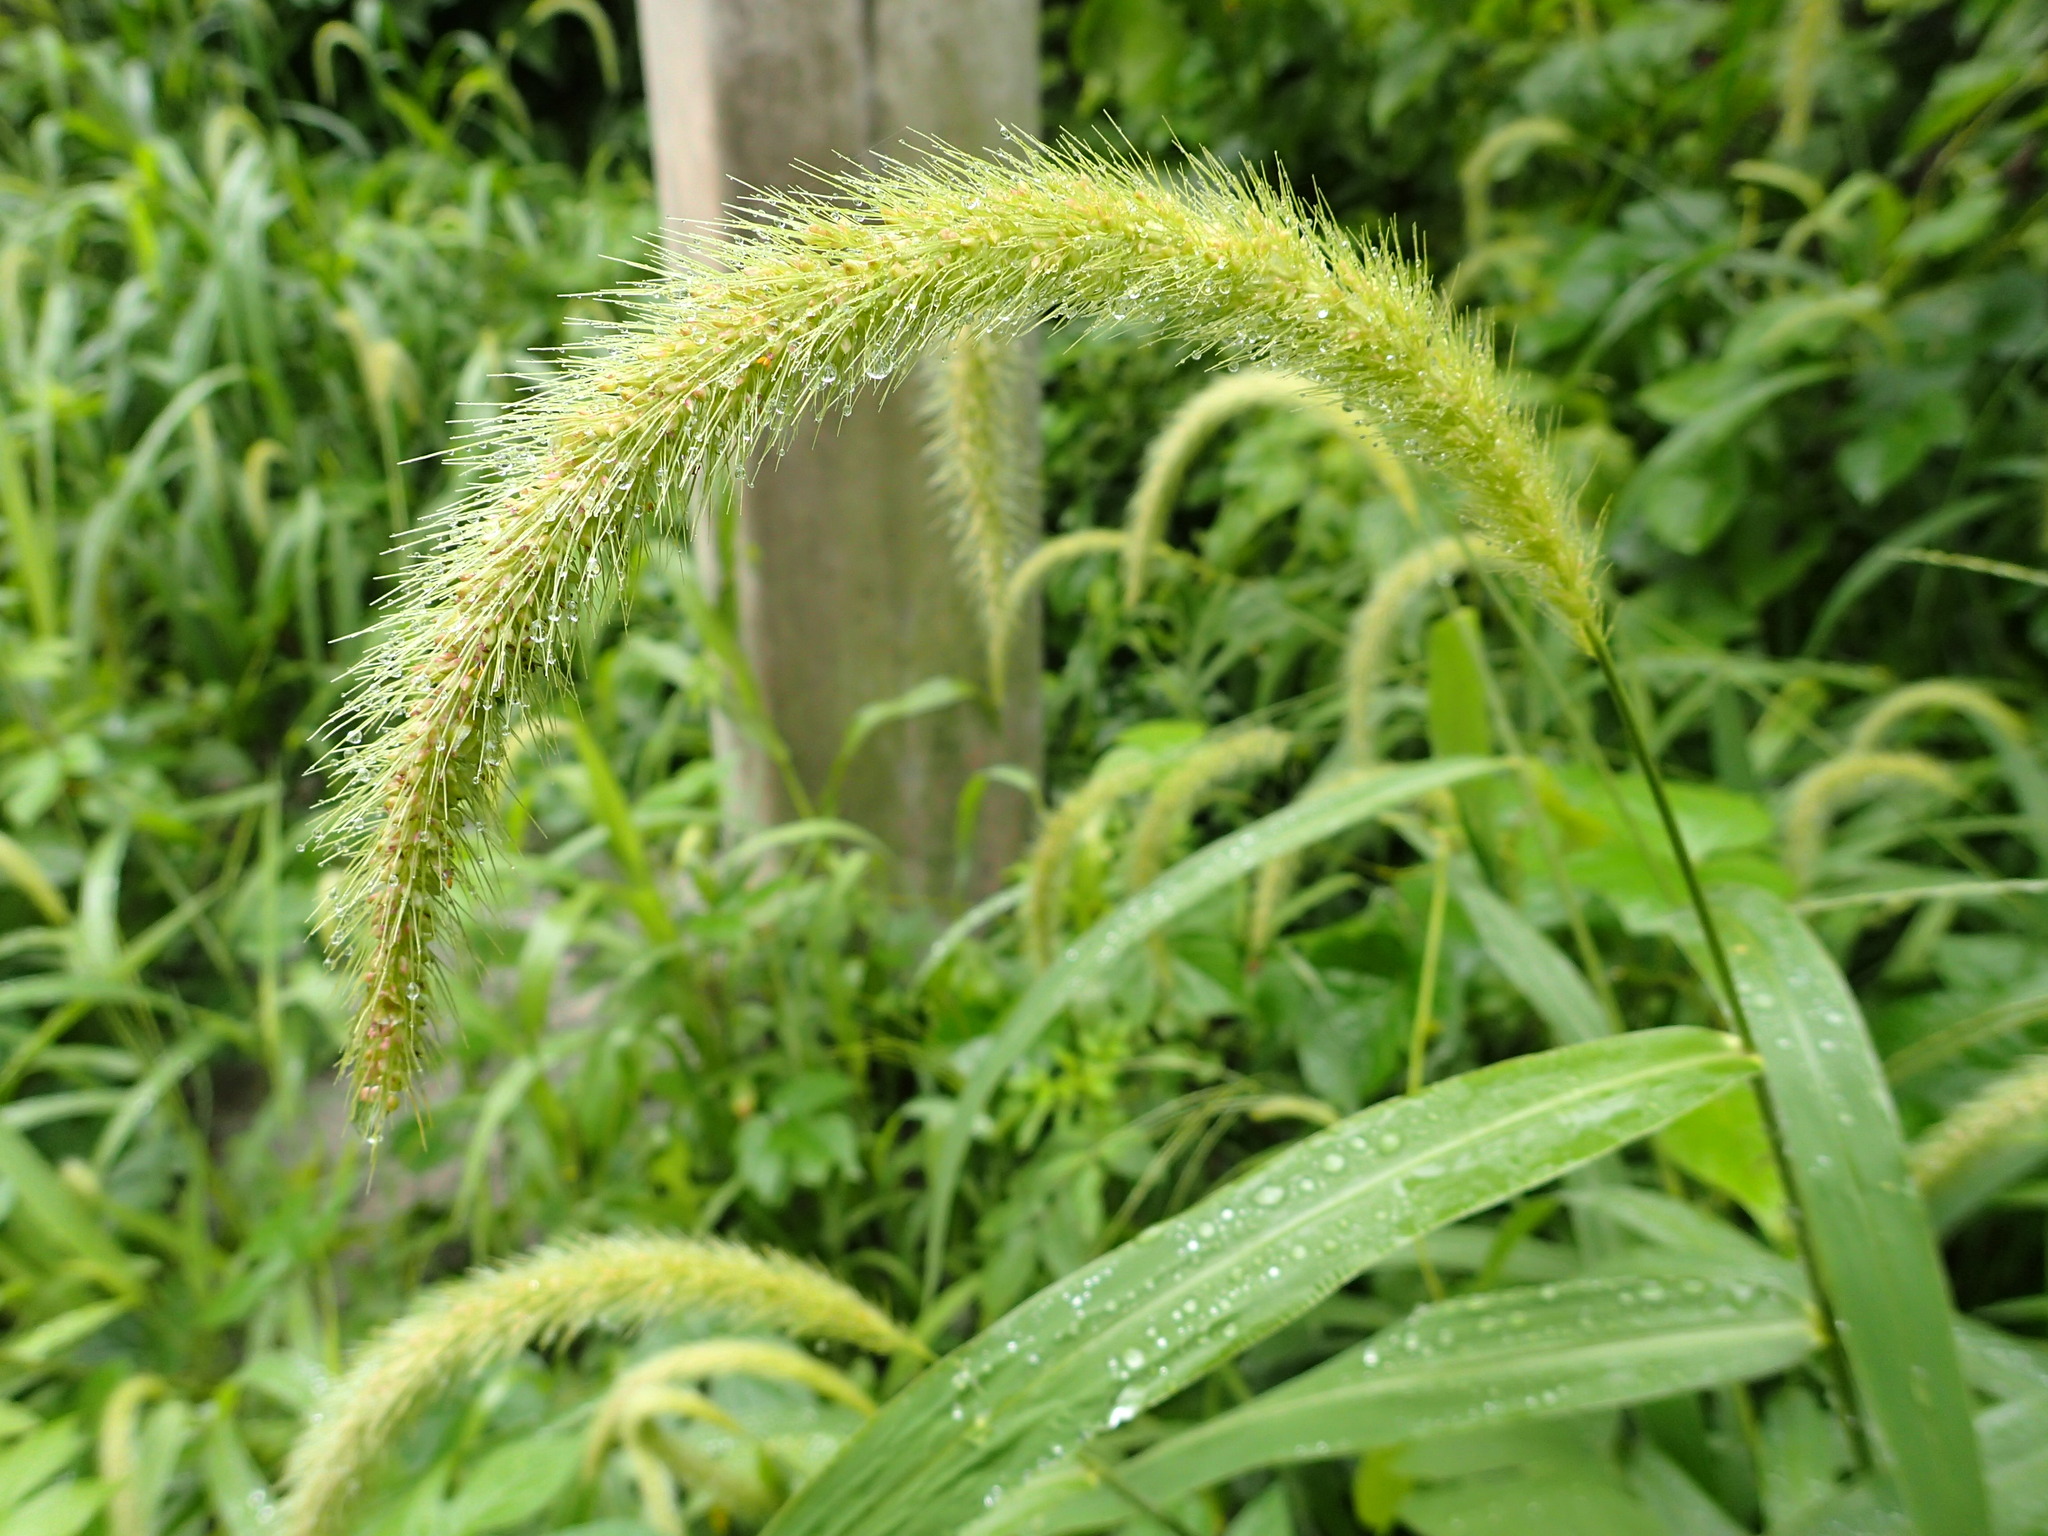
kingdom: Plantae
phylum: Tracheophyta
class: Liliopsida
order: Poales
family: Poaceae
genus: Setaria
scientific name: Setaria faberi
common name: Nodding bristle-grass
